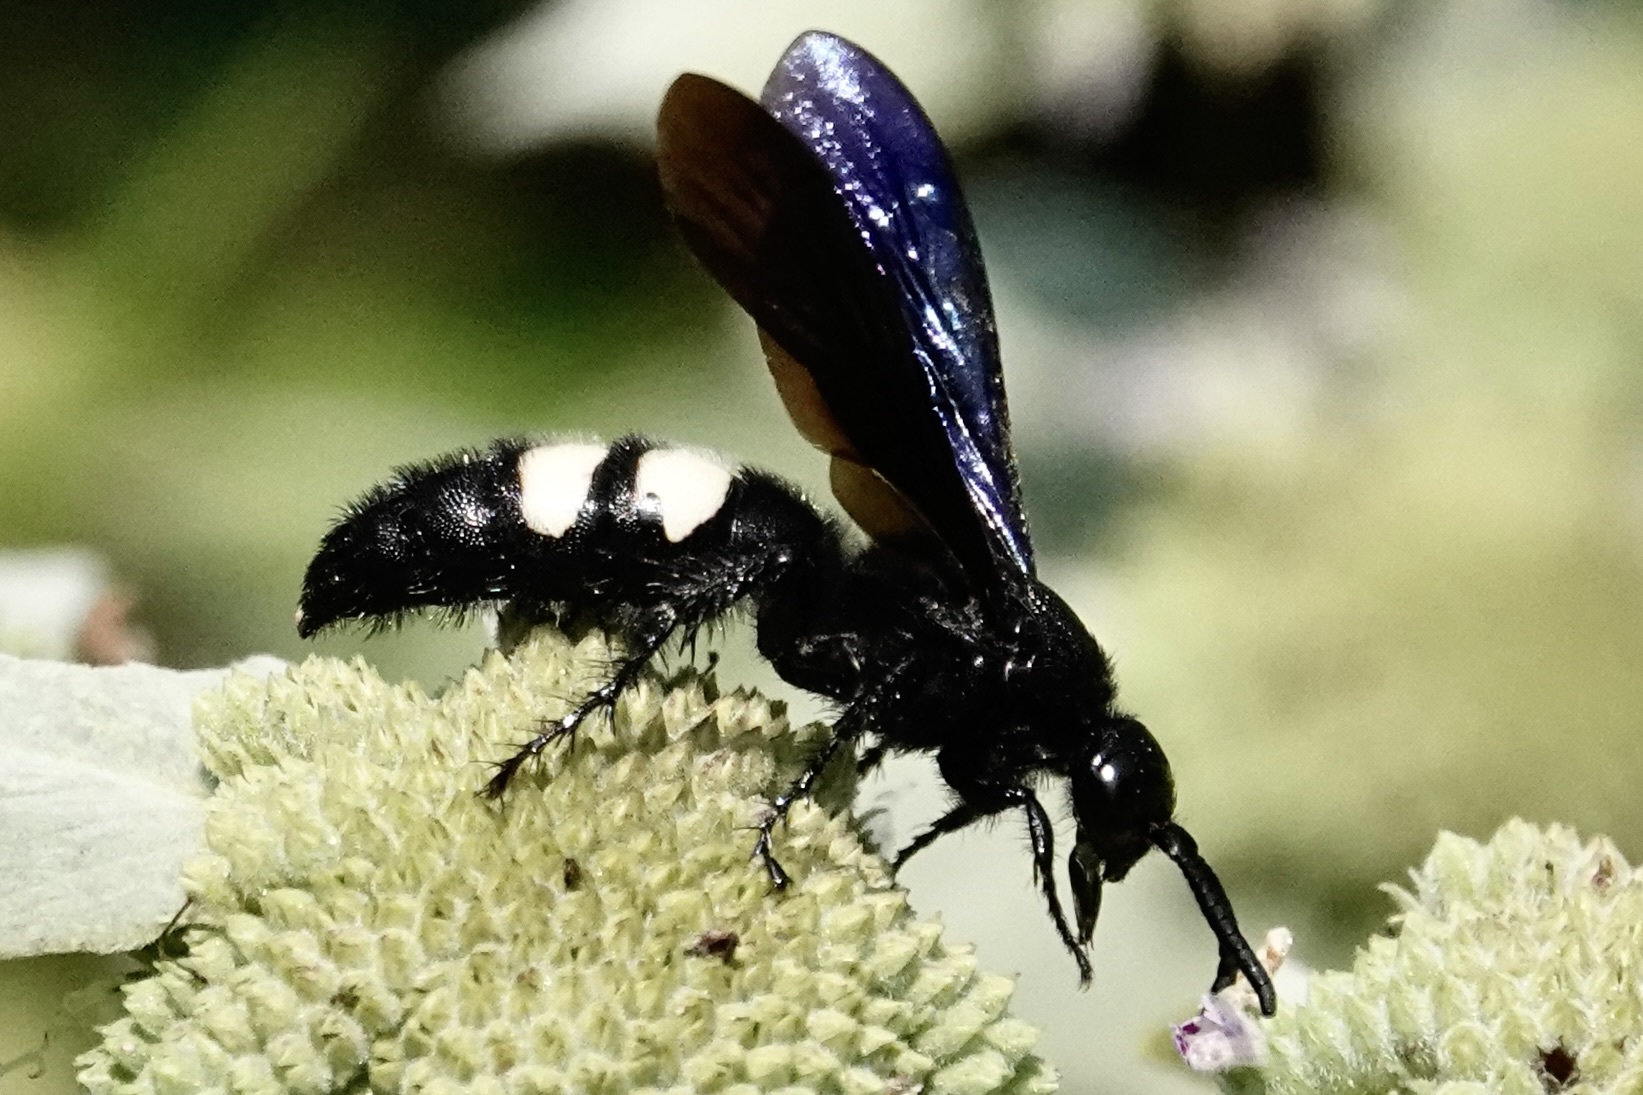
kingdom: Animalia
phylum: Arthropoda
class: Insecta
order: Hymenoptera
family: Scoliidae
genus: Scolia
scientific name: Scolia bicincta
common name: Double-banded scoliid wasp
